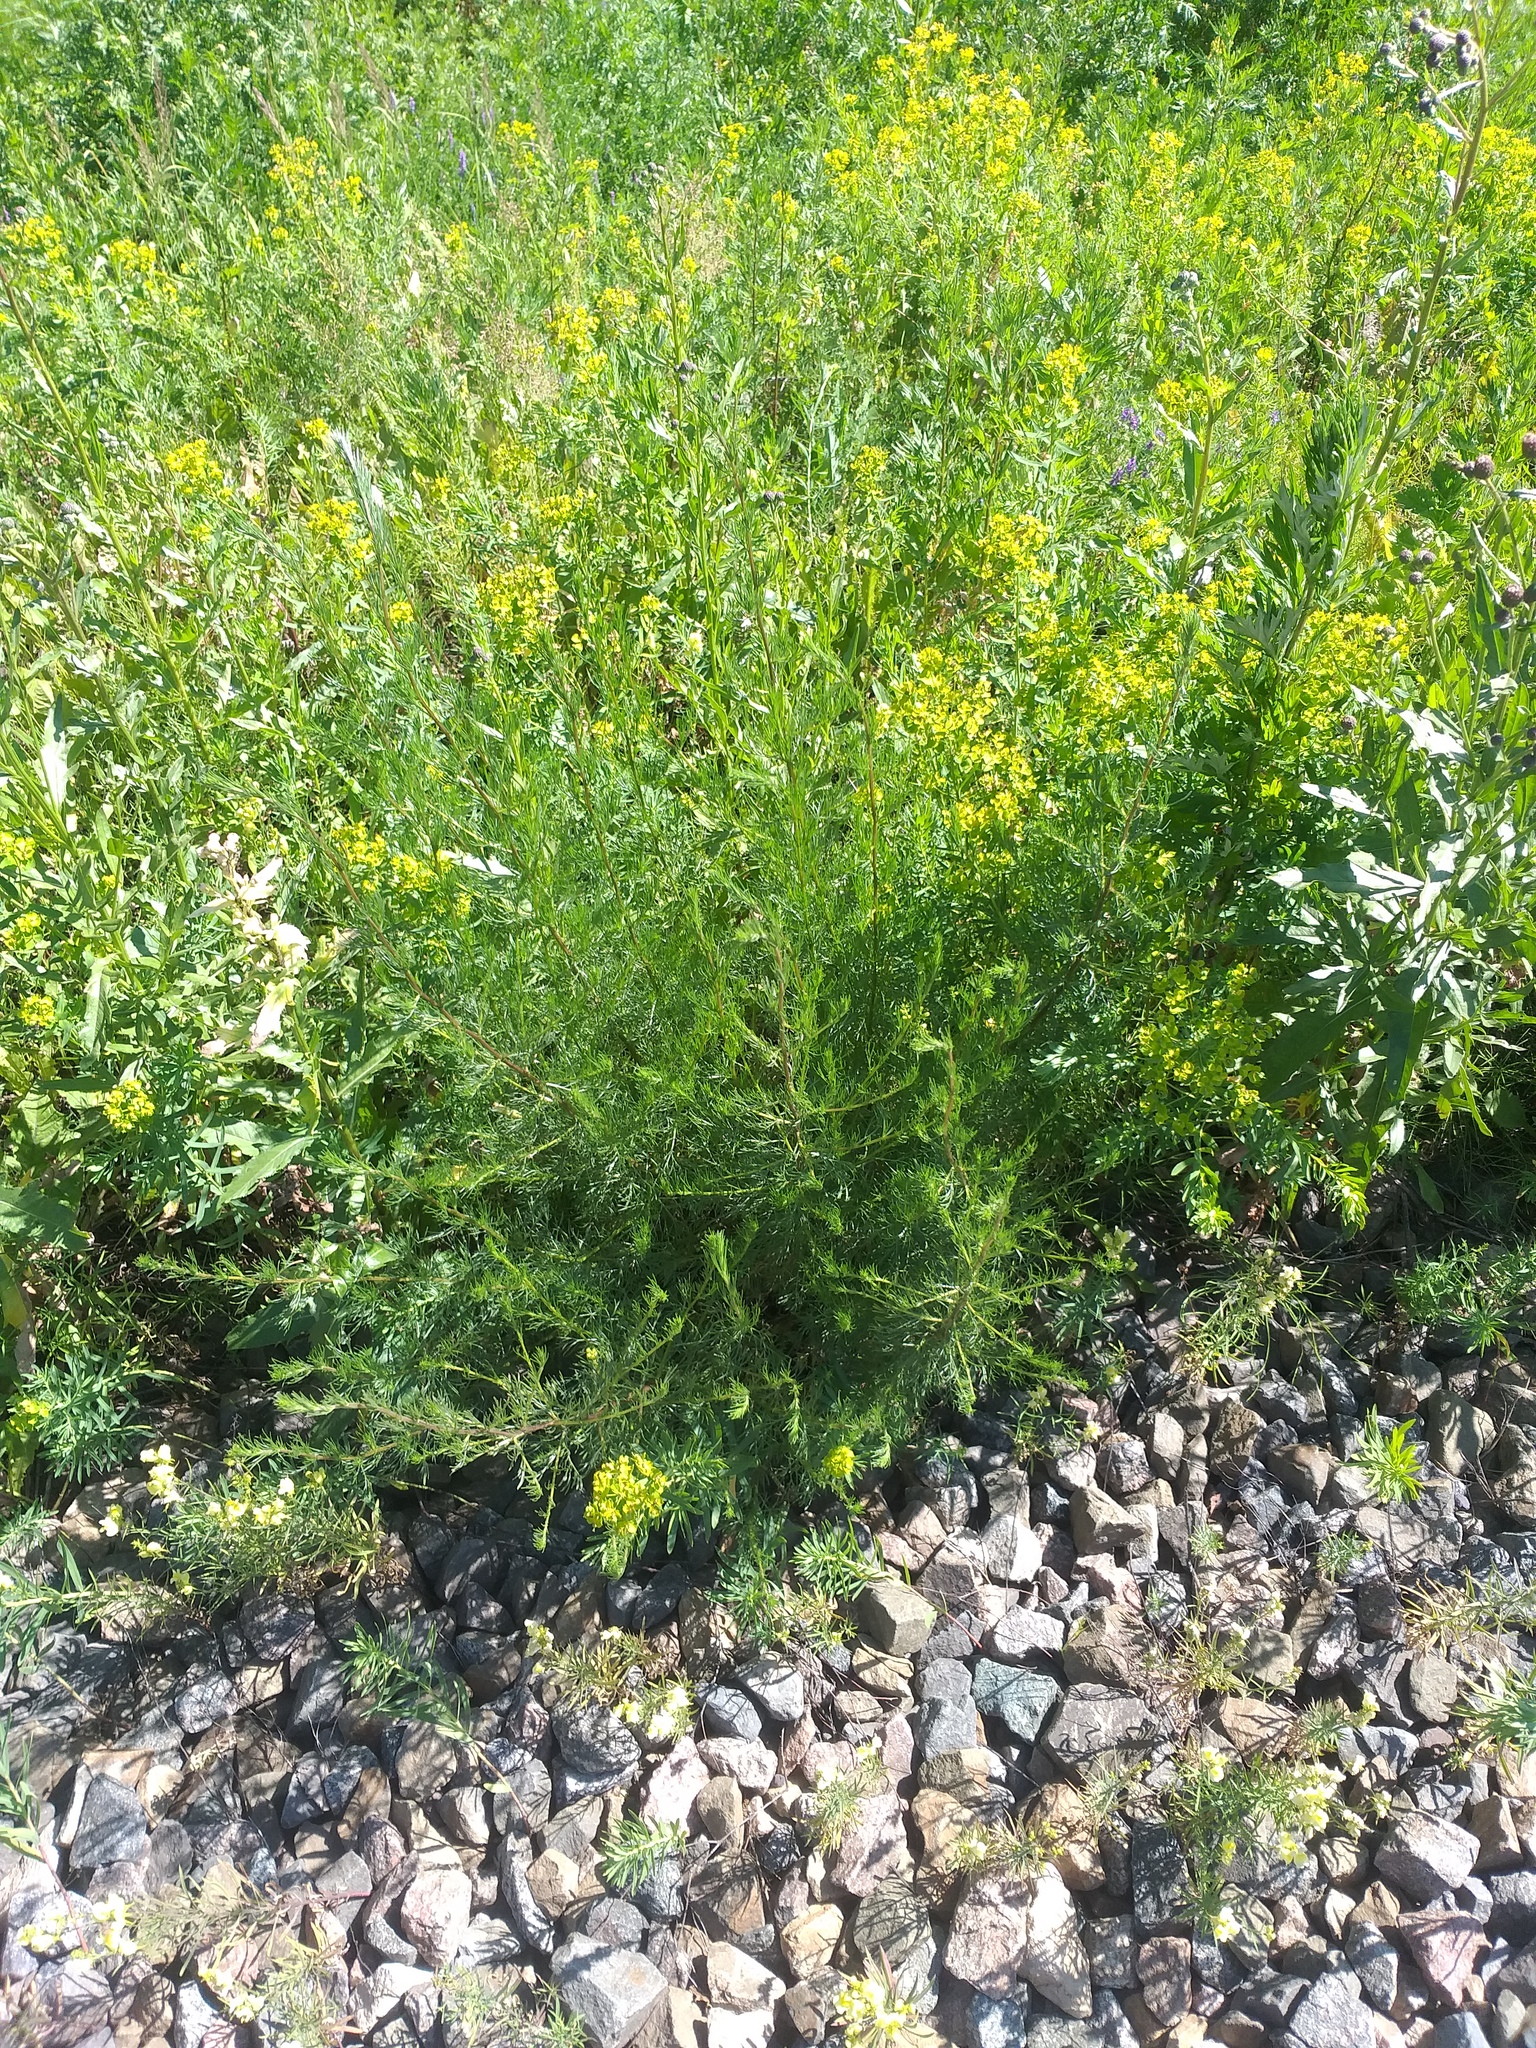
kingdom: Plantae
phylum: Tracheophyta
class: Magnoliopsida
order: Asterales
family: Asteraceae
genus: Artemisia
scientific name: Artemisia campestris
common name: Field wormwood
